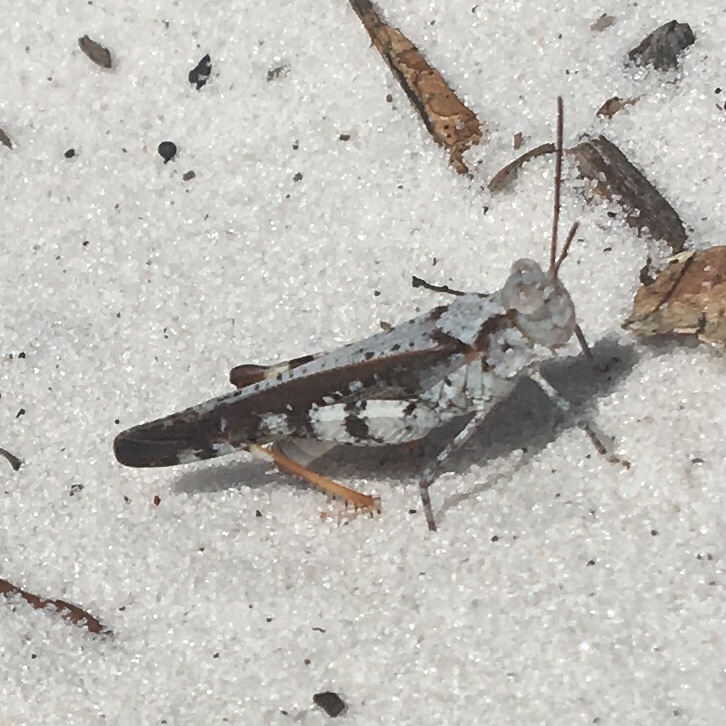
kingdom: Animalia
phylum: Arthropoda
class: Insecta
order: Orthoptera
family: Acrididae
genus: Spharagemon
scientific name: Spharagemon marmoratum
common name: Marbled grasshopper
